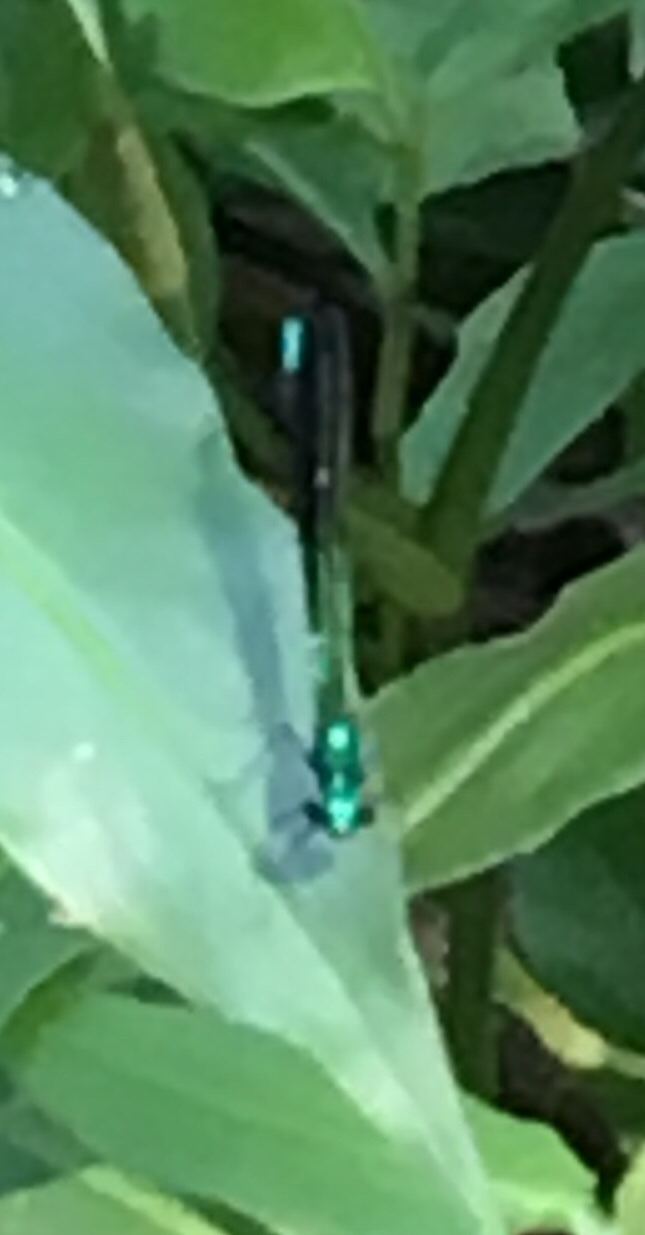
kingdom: Animalia
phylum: Arthropoda
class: Insecta
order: Odonata
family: Calopterygidae
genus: Calopteryx
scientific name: Calopteryx maculata
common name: Ebony jewelwing
